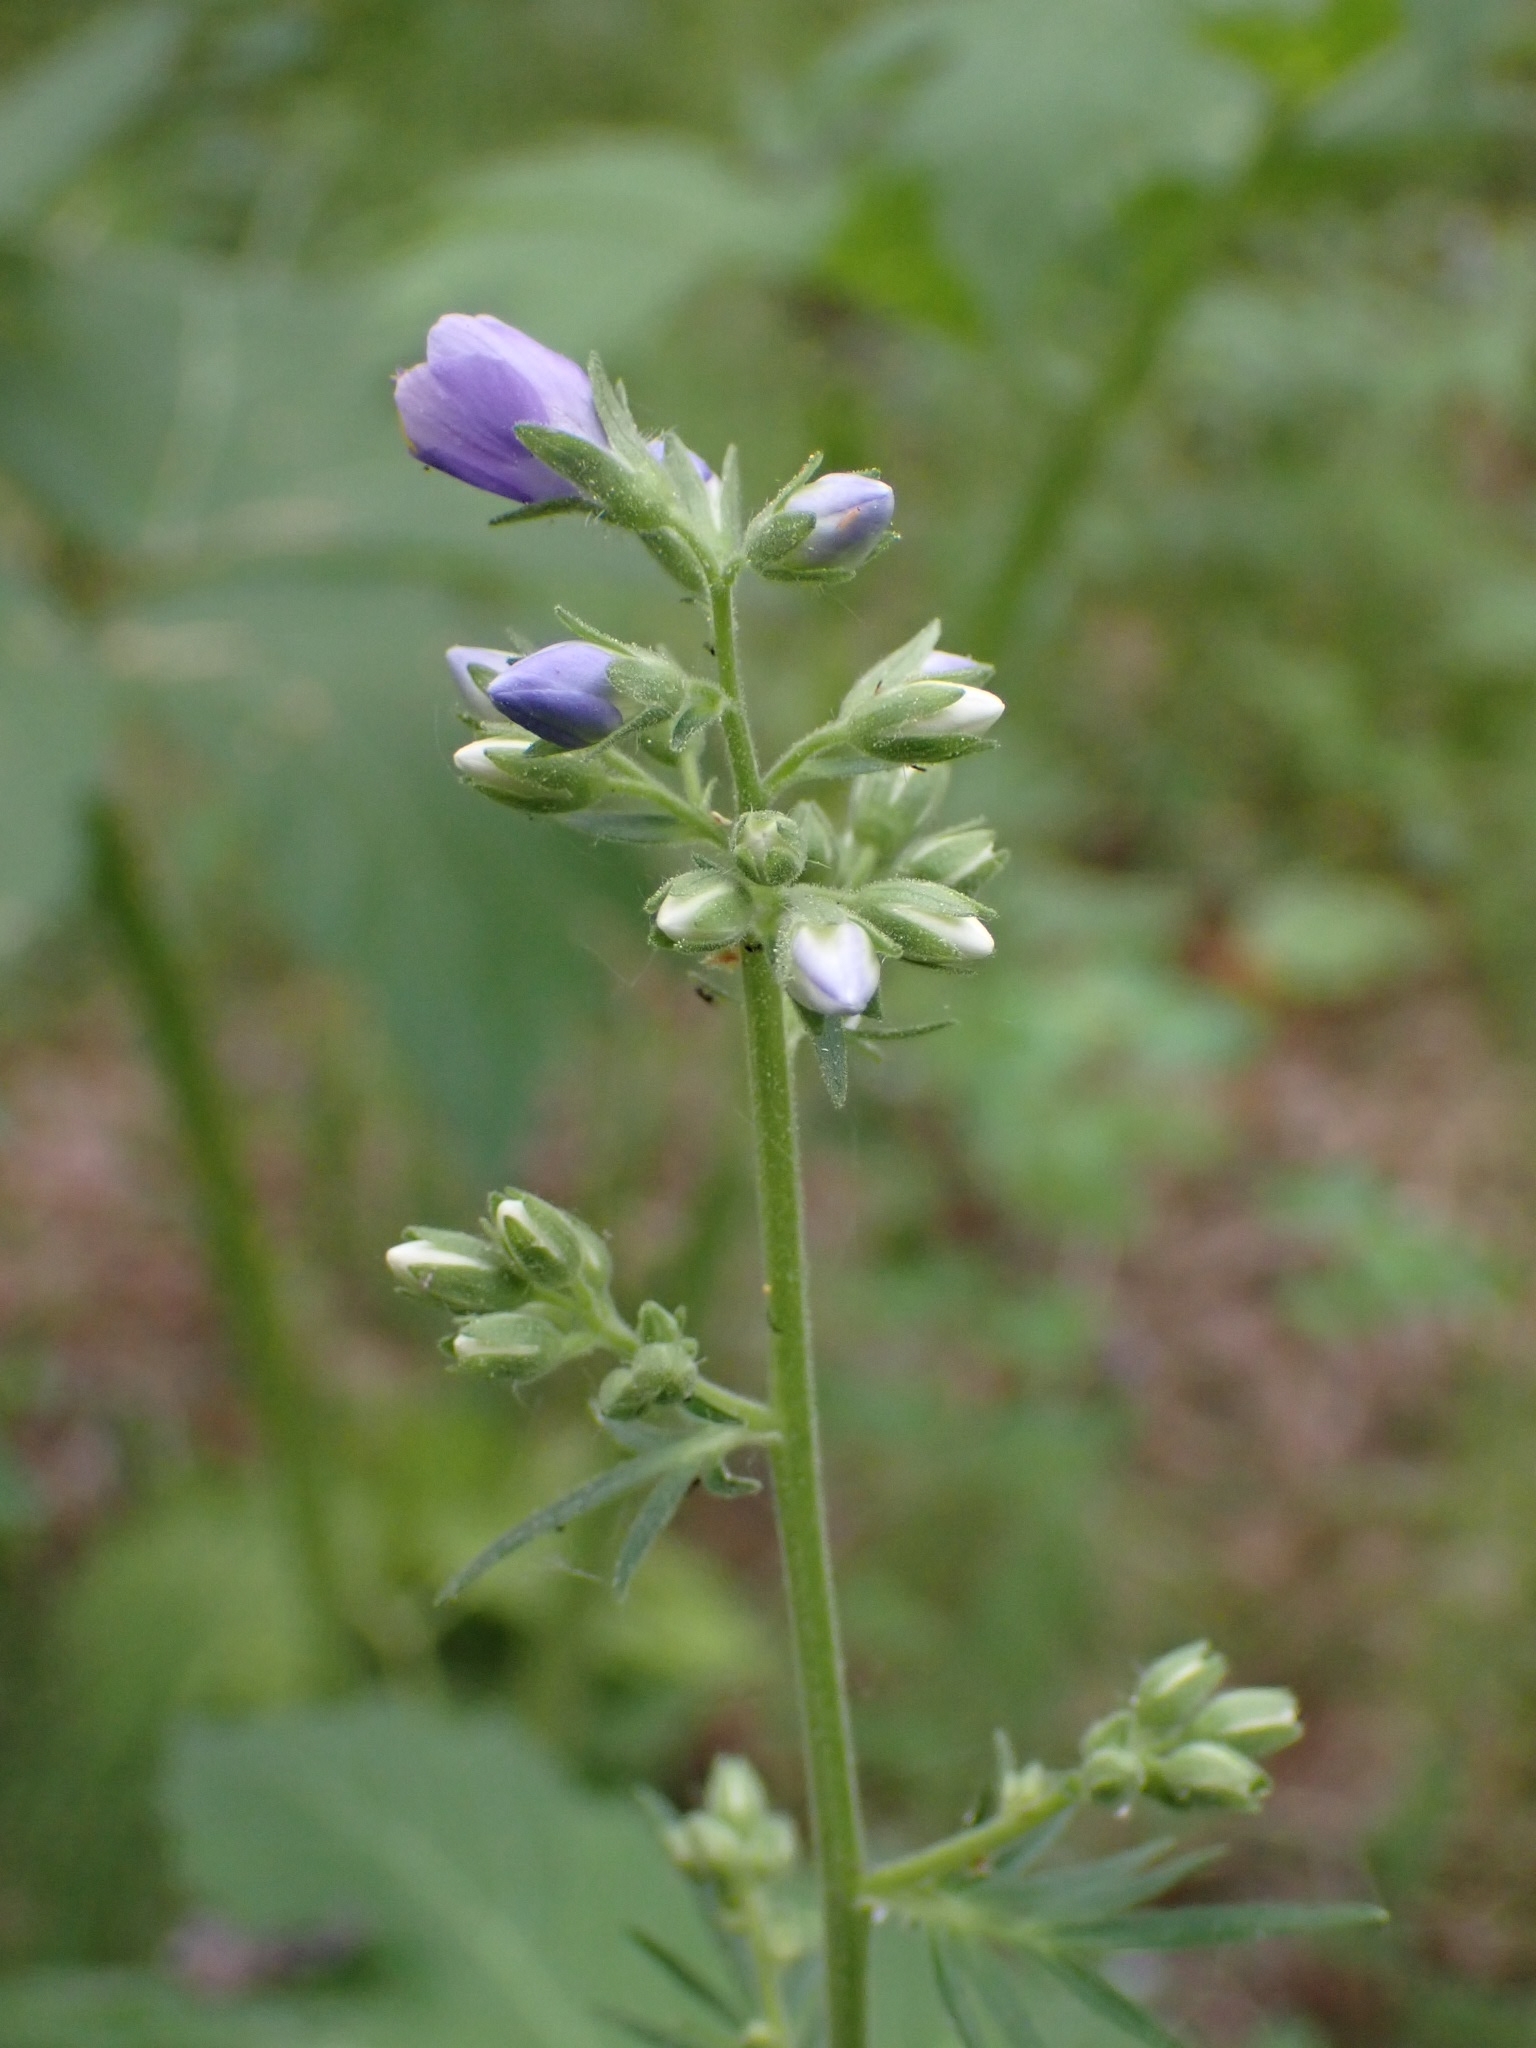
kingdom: Plantae
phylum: Tracheophyta
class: Magnoliopsida
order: Ericales
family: Polemoniaceae
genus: Polemonium
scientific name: Polemonium caeruleum
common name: Jacob's-ladder
